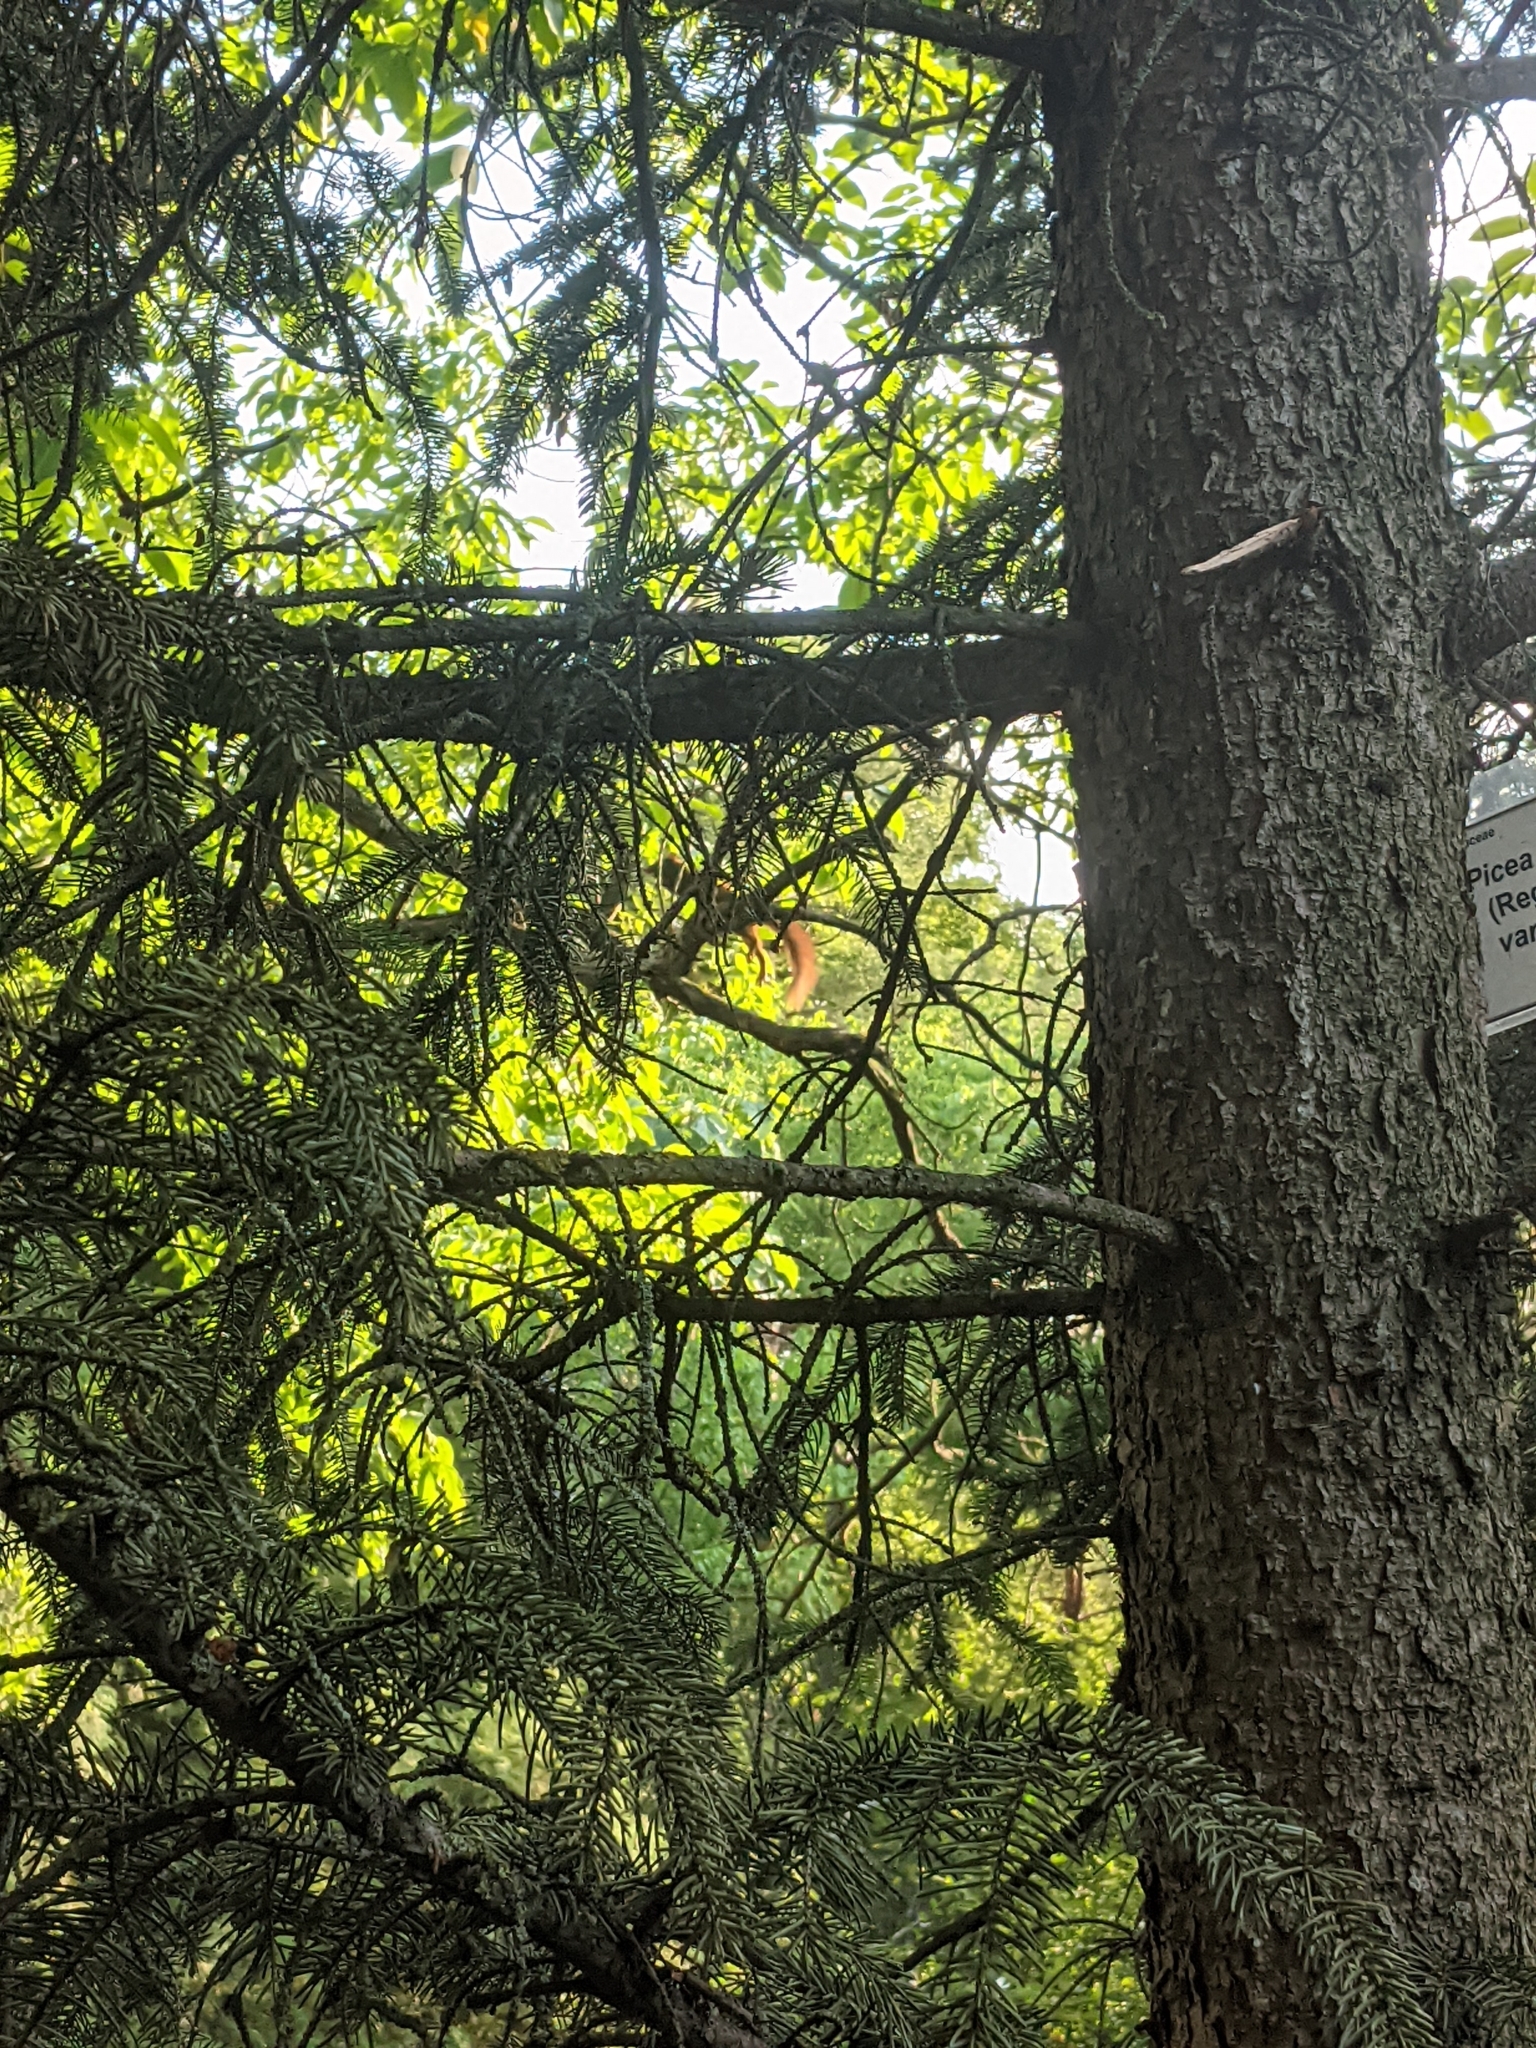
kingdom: Animalia
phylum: Chordata
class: Mammalia
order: Rodentia
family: Sciuridae
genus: Sciurus
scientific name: Sciurus vulgaris
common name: Eurasian red squirrel
